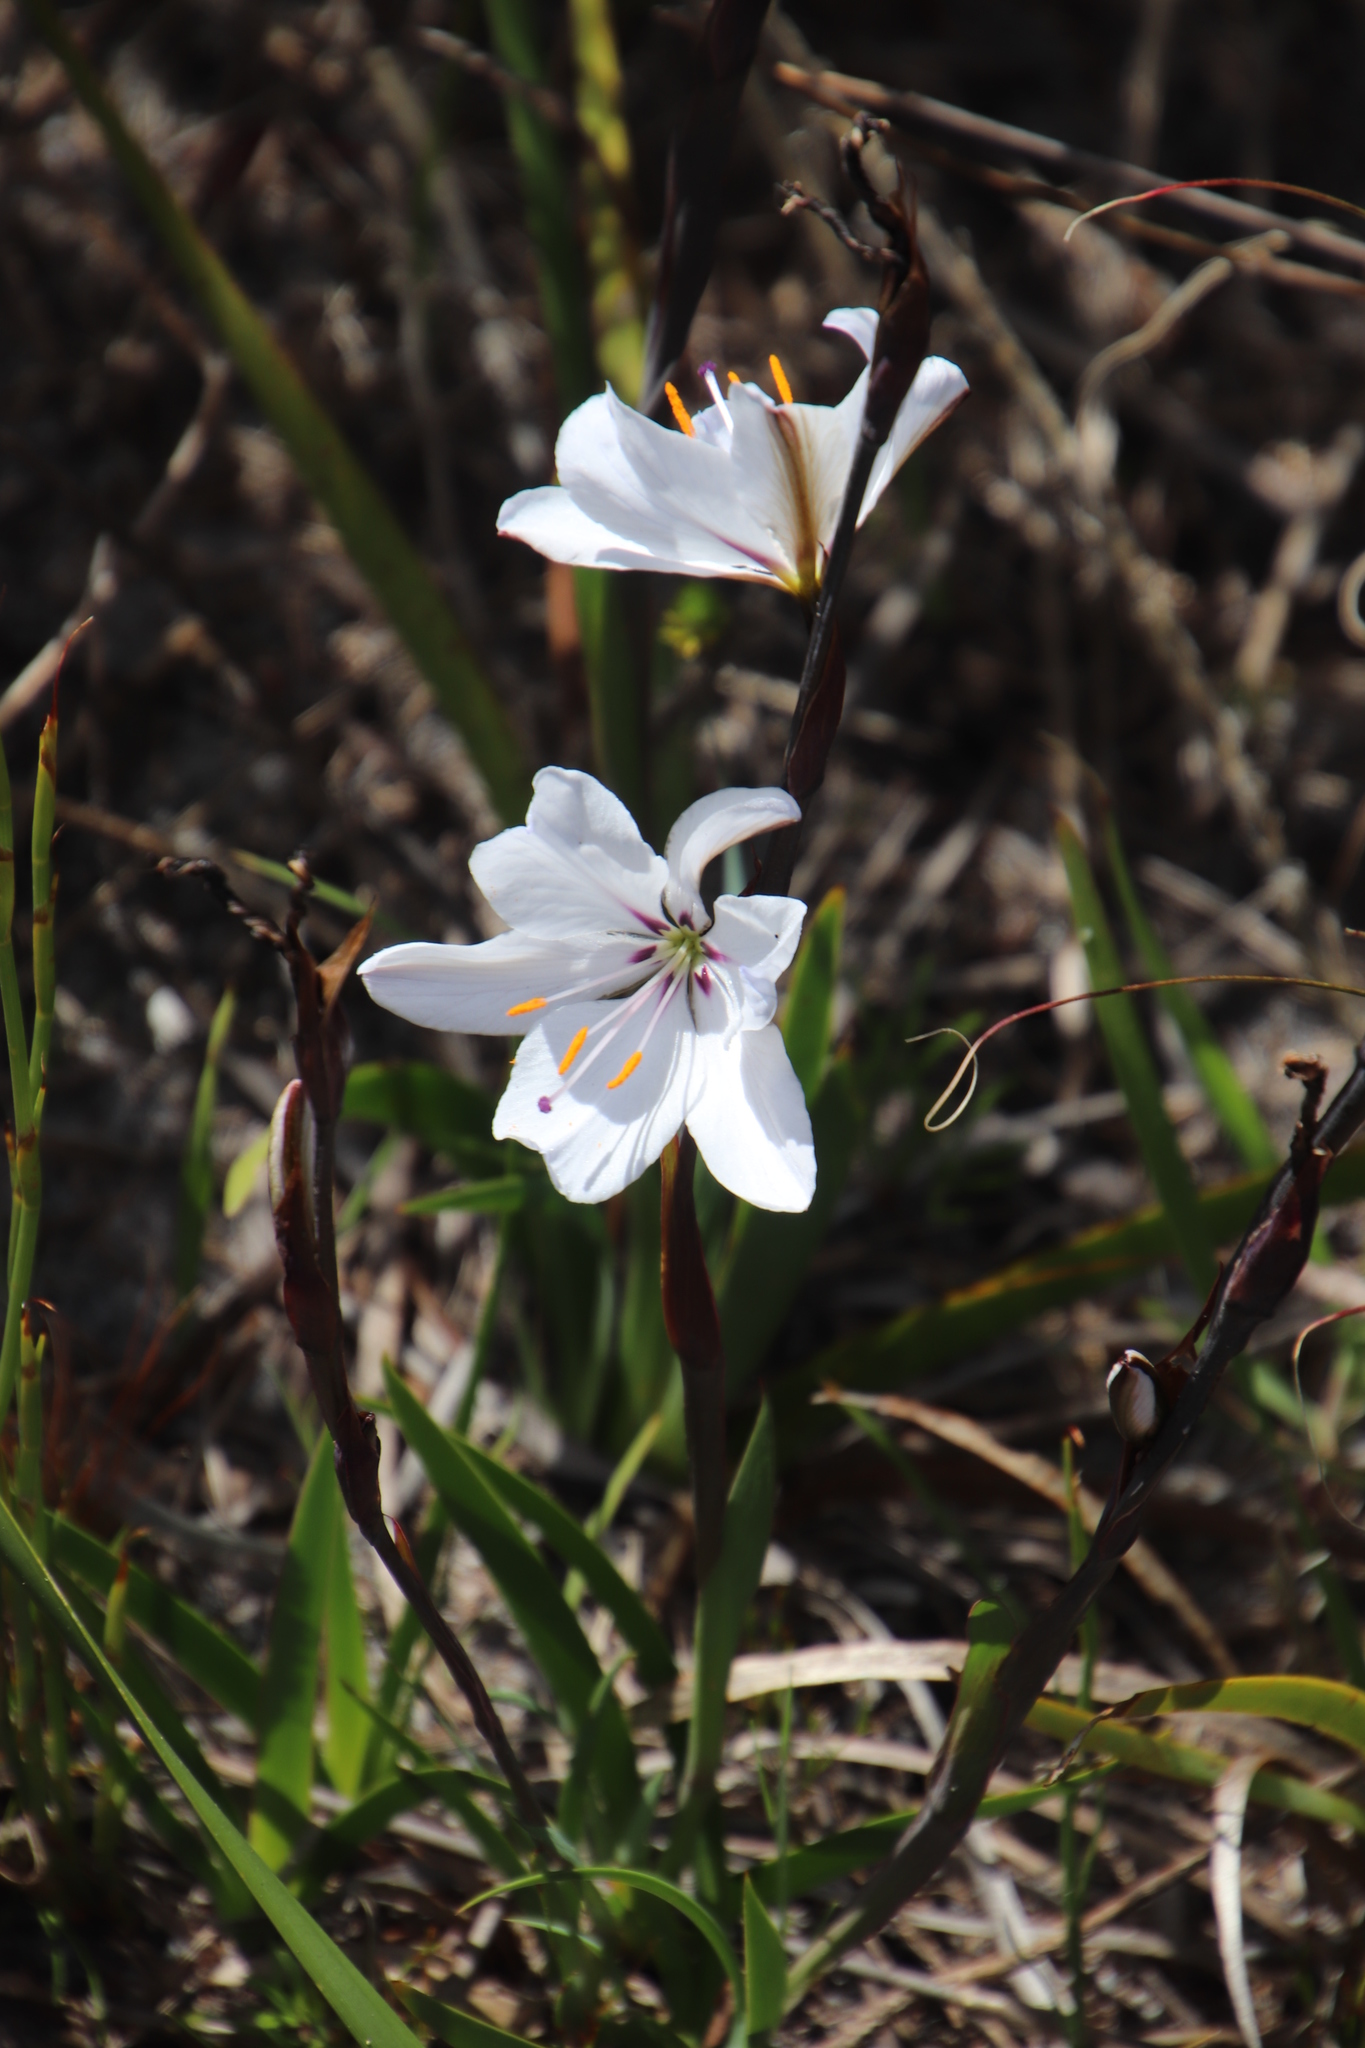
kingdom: Plantae
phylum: Tracheophyta
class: Liliopsida
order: Asparagales
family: Iridaceae
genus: Aristea
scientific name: Aristea spiralis
